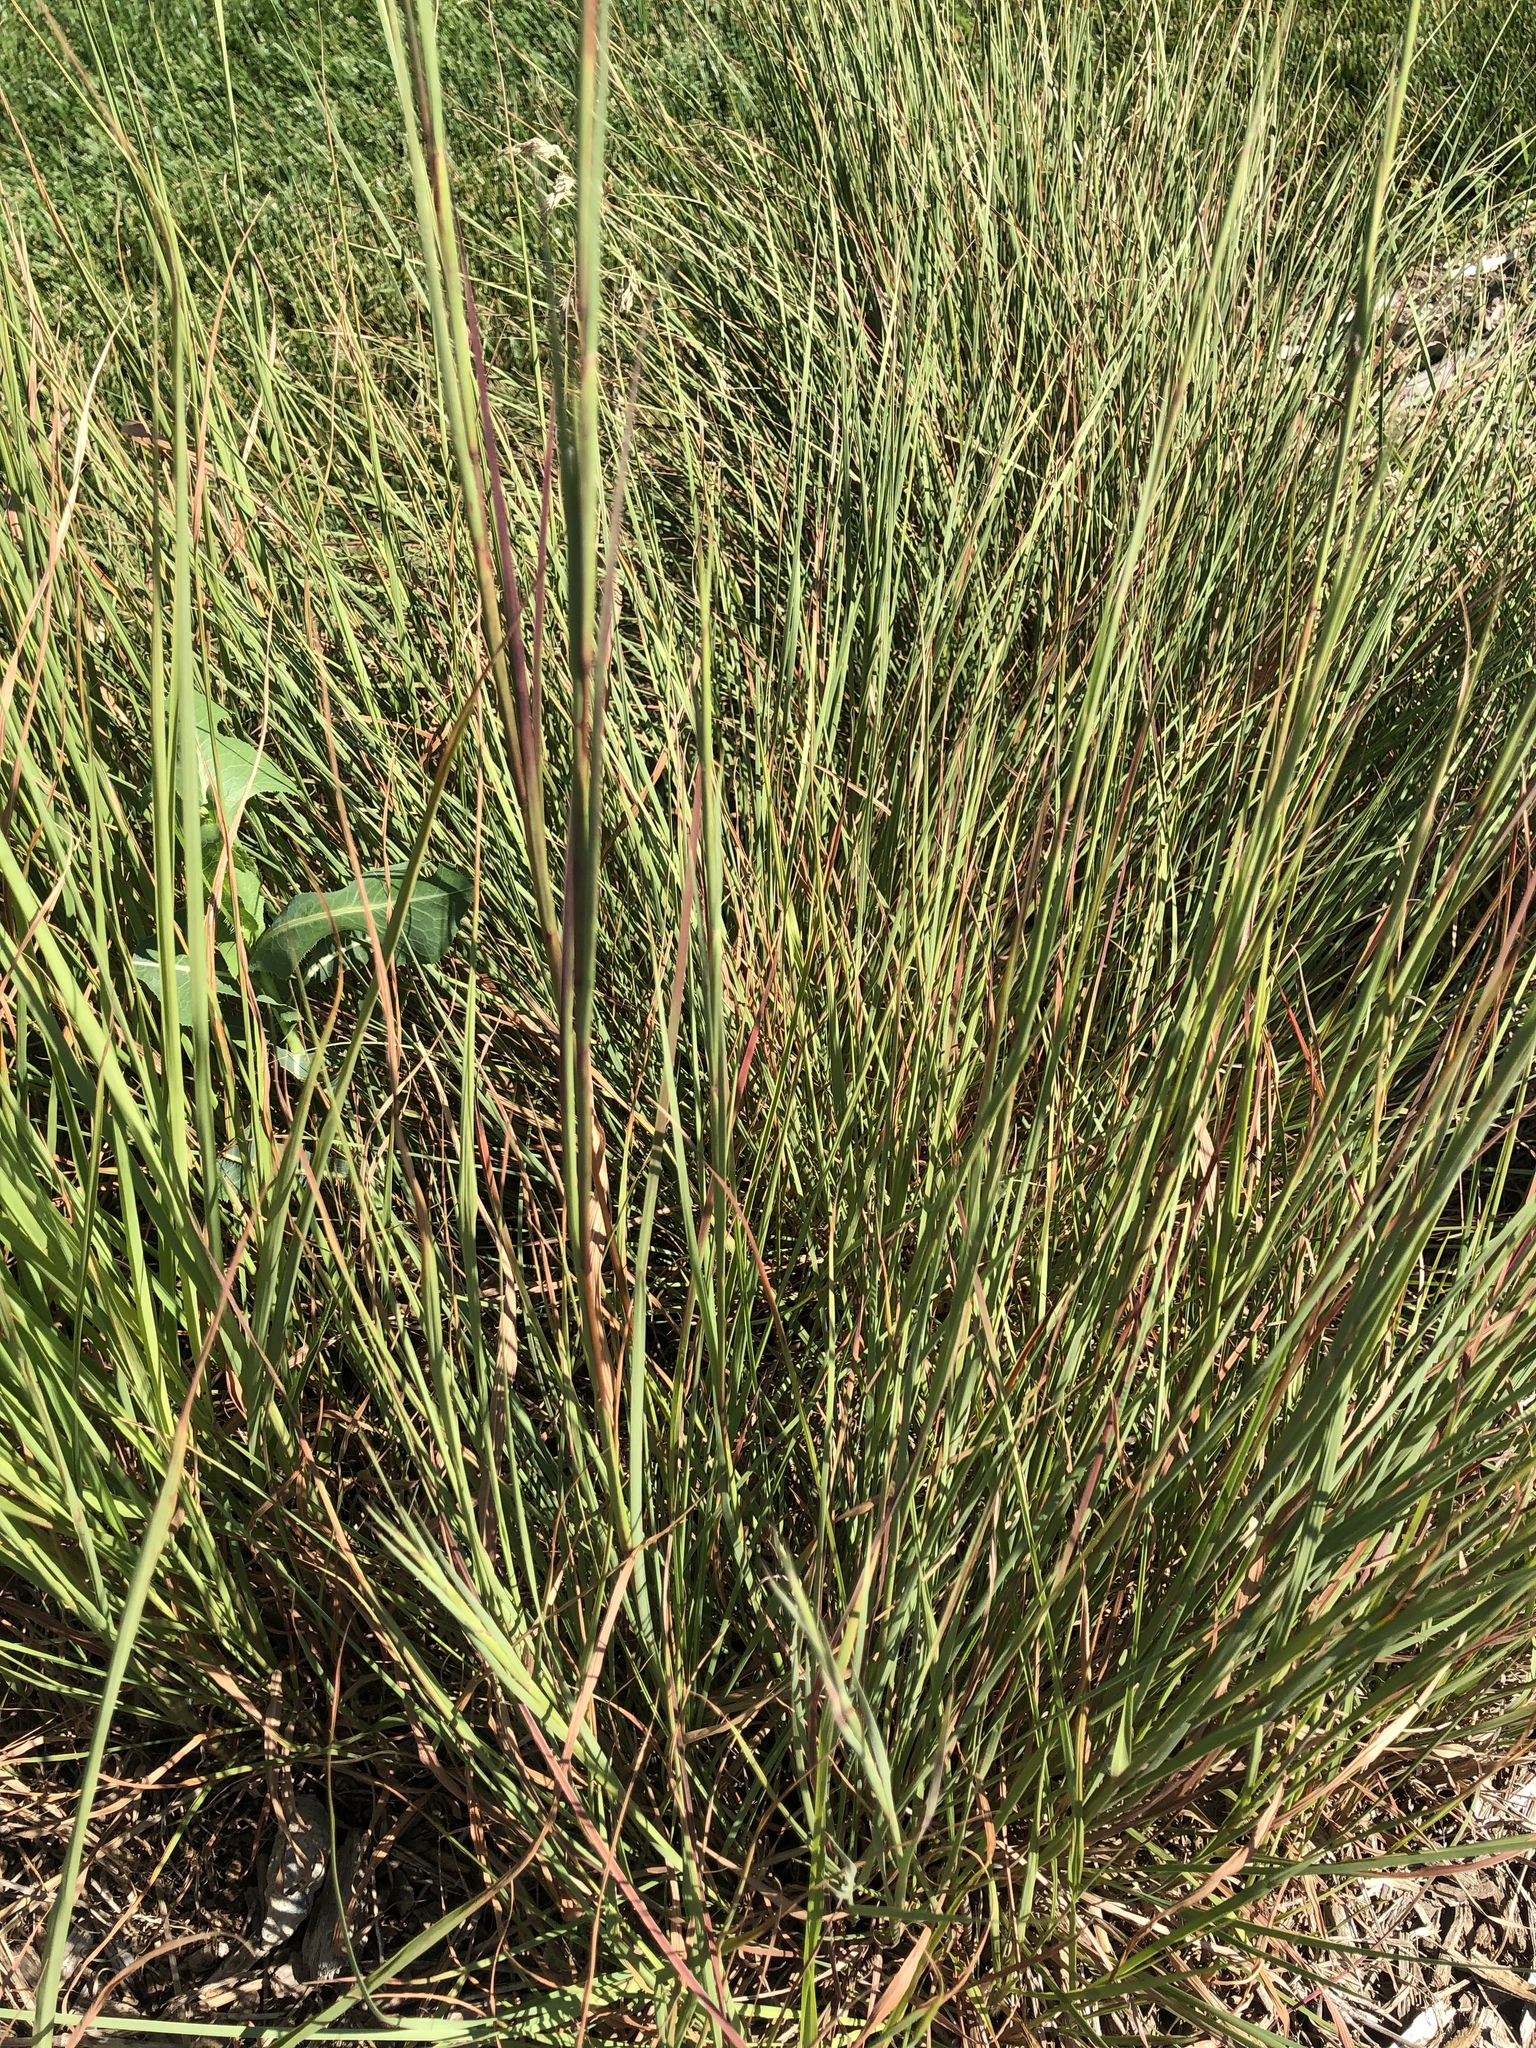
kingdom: Plantae
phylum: Tracheophyta
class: Liliopsida
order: Poales
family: Poaceae
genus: Schizachyrium
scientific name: Schizachyrium scoparium
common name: Little bluestem
